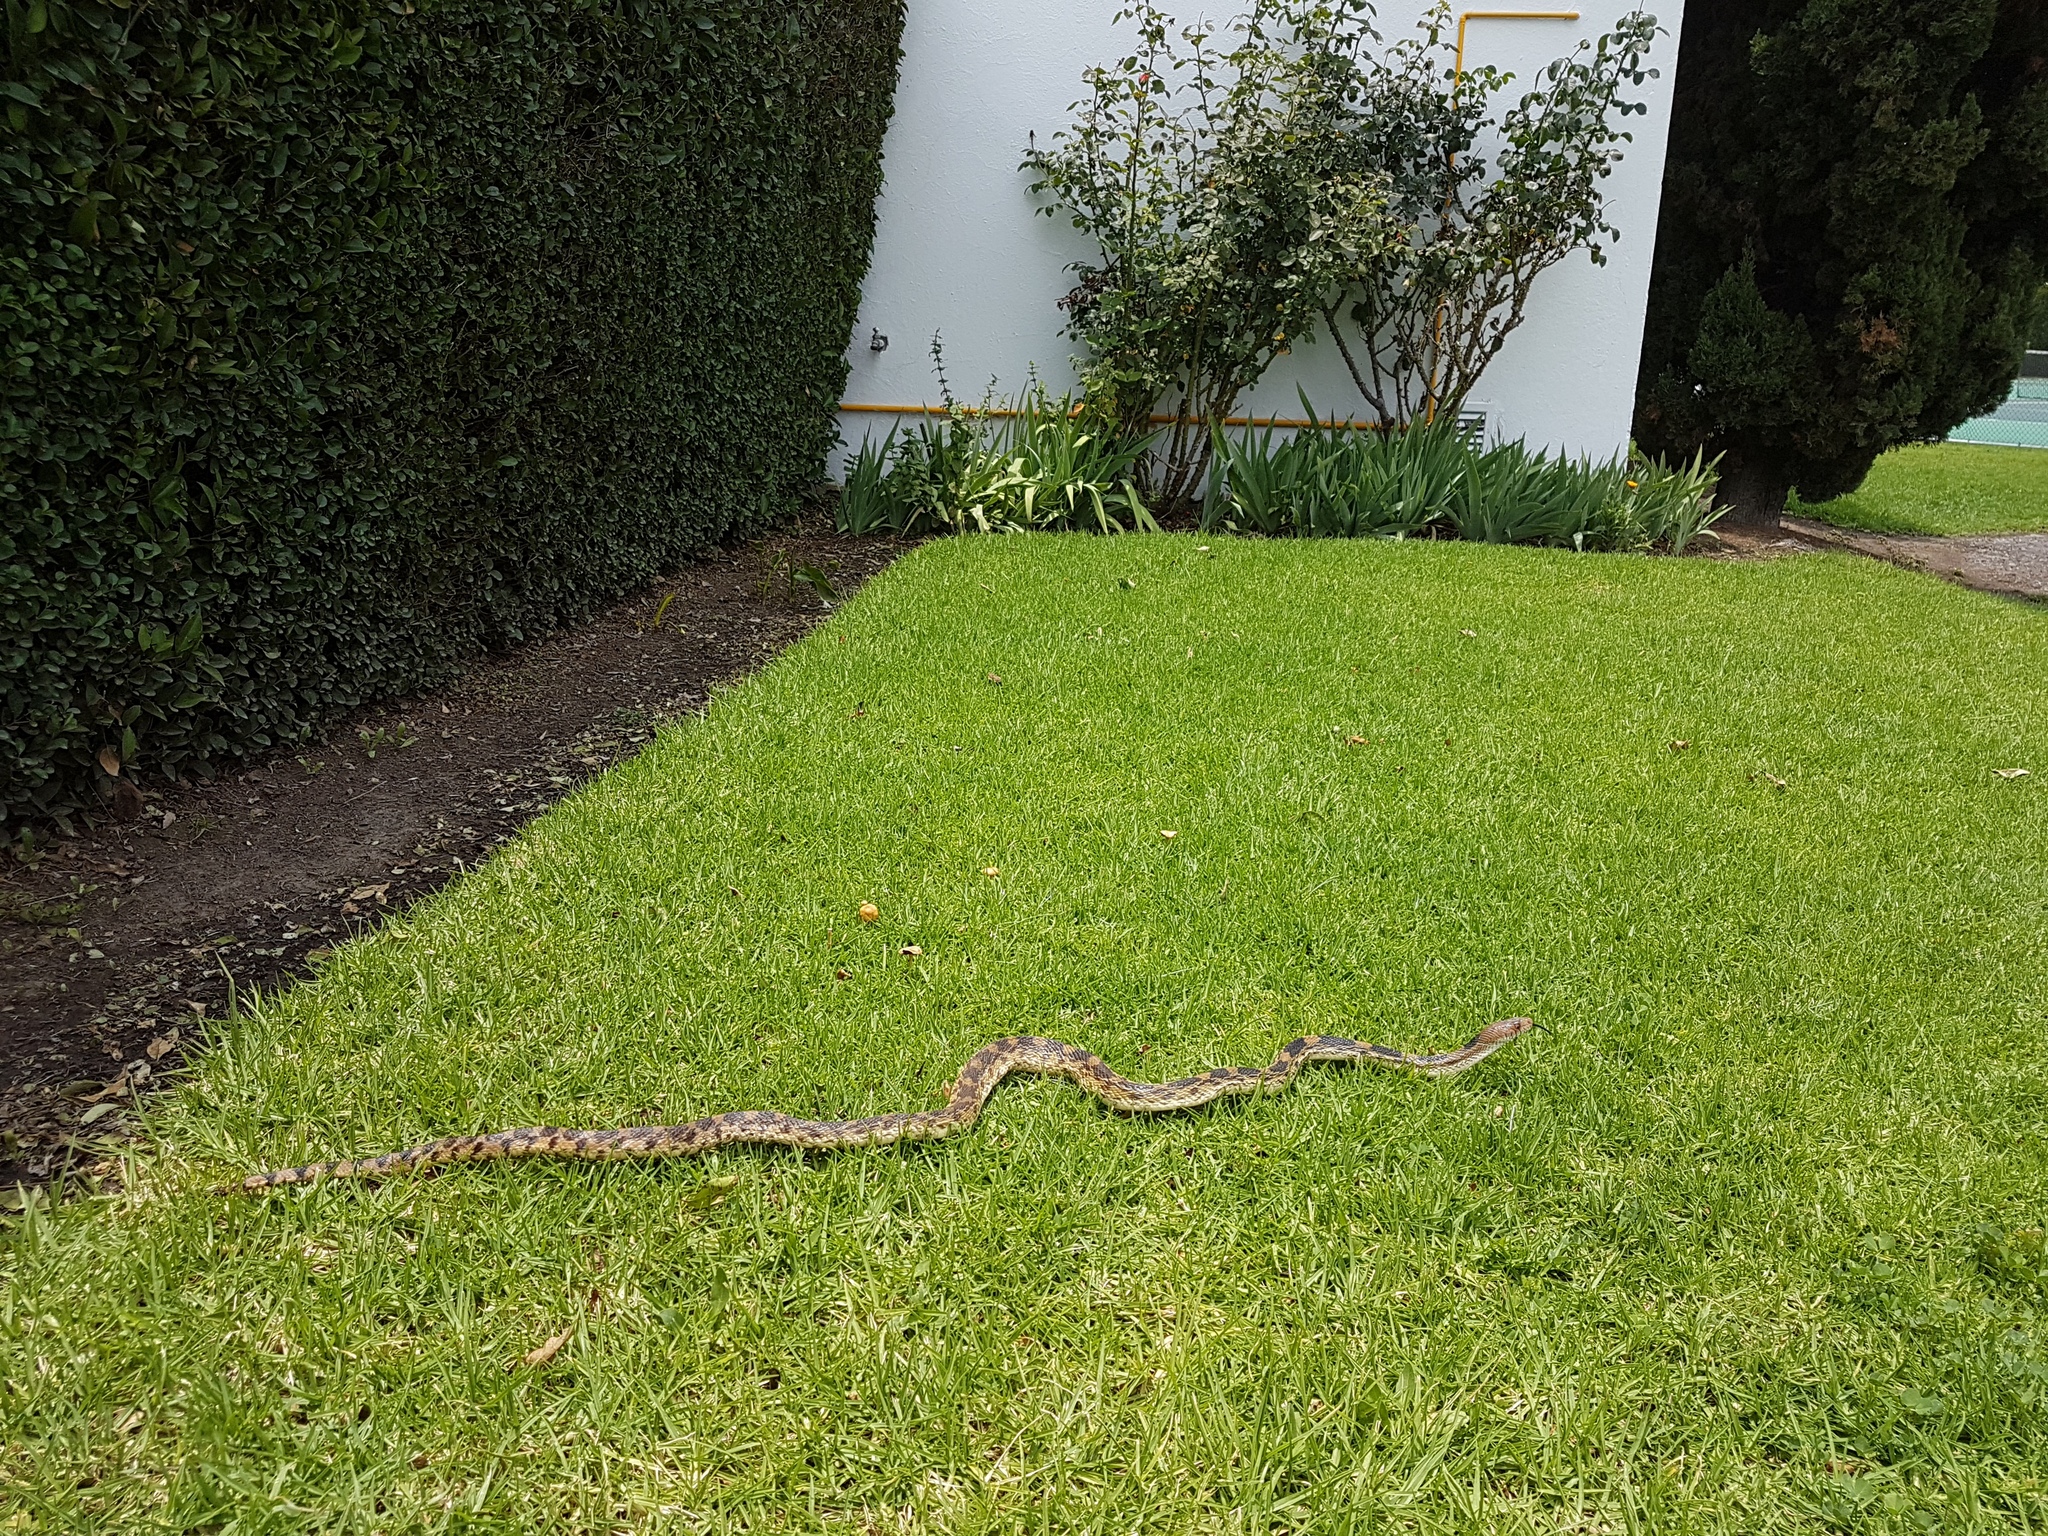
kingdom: Animalia
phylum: Chordata
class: Squamata
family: Colubridae
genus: Pituophis
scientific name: Pituophis deppei
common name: Mexican bull snake
